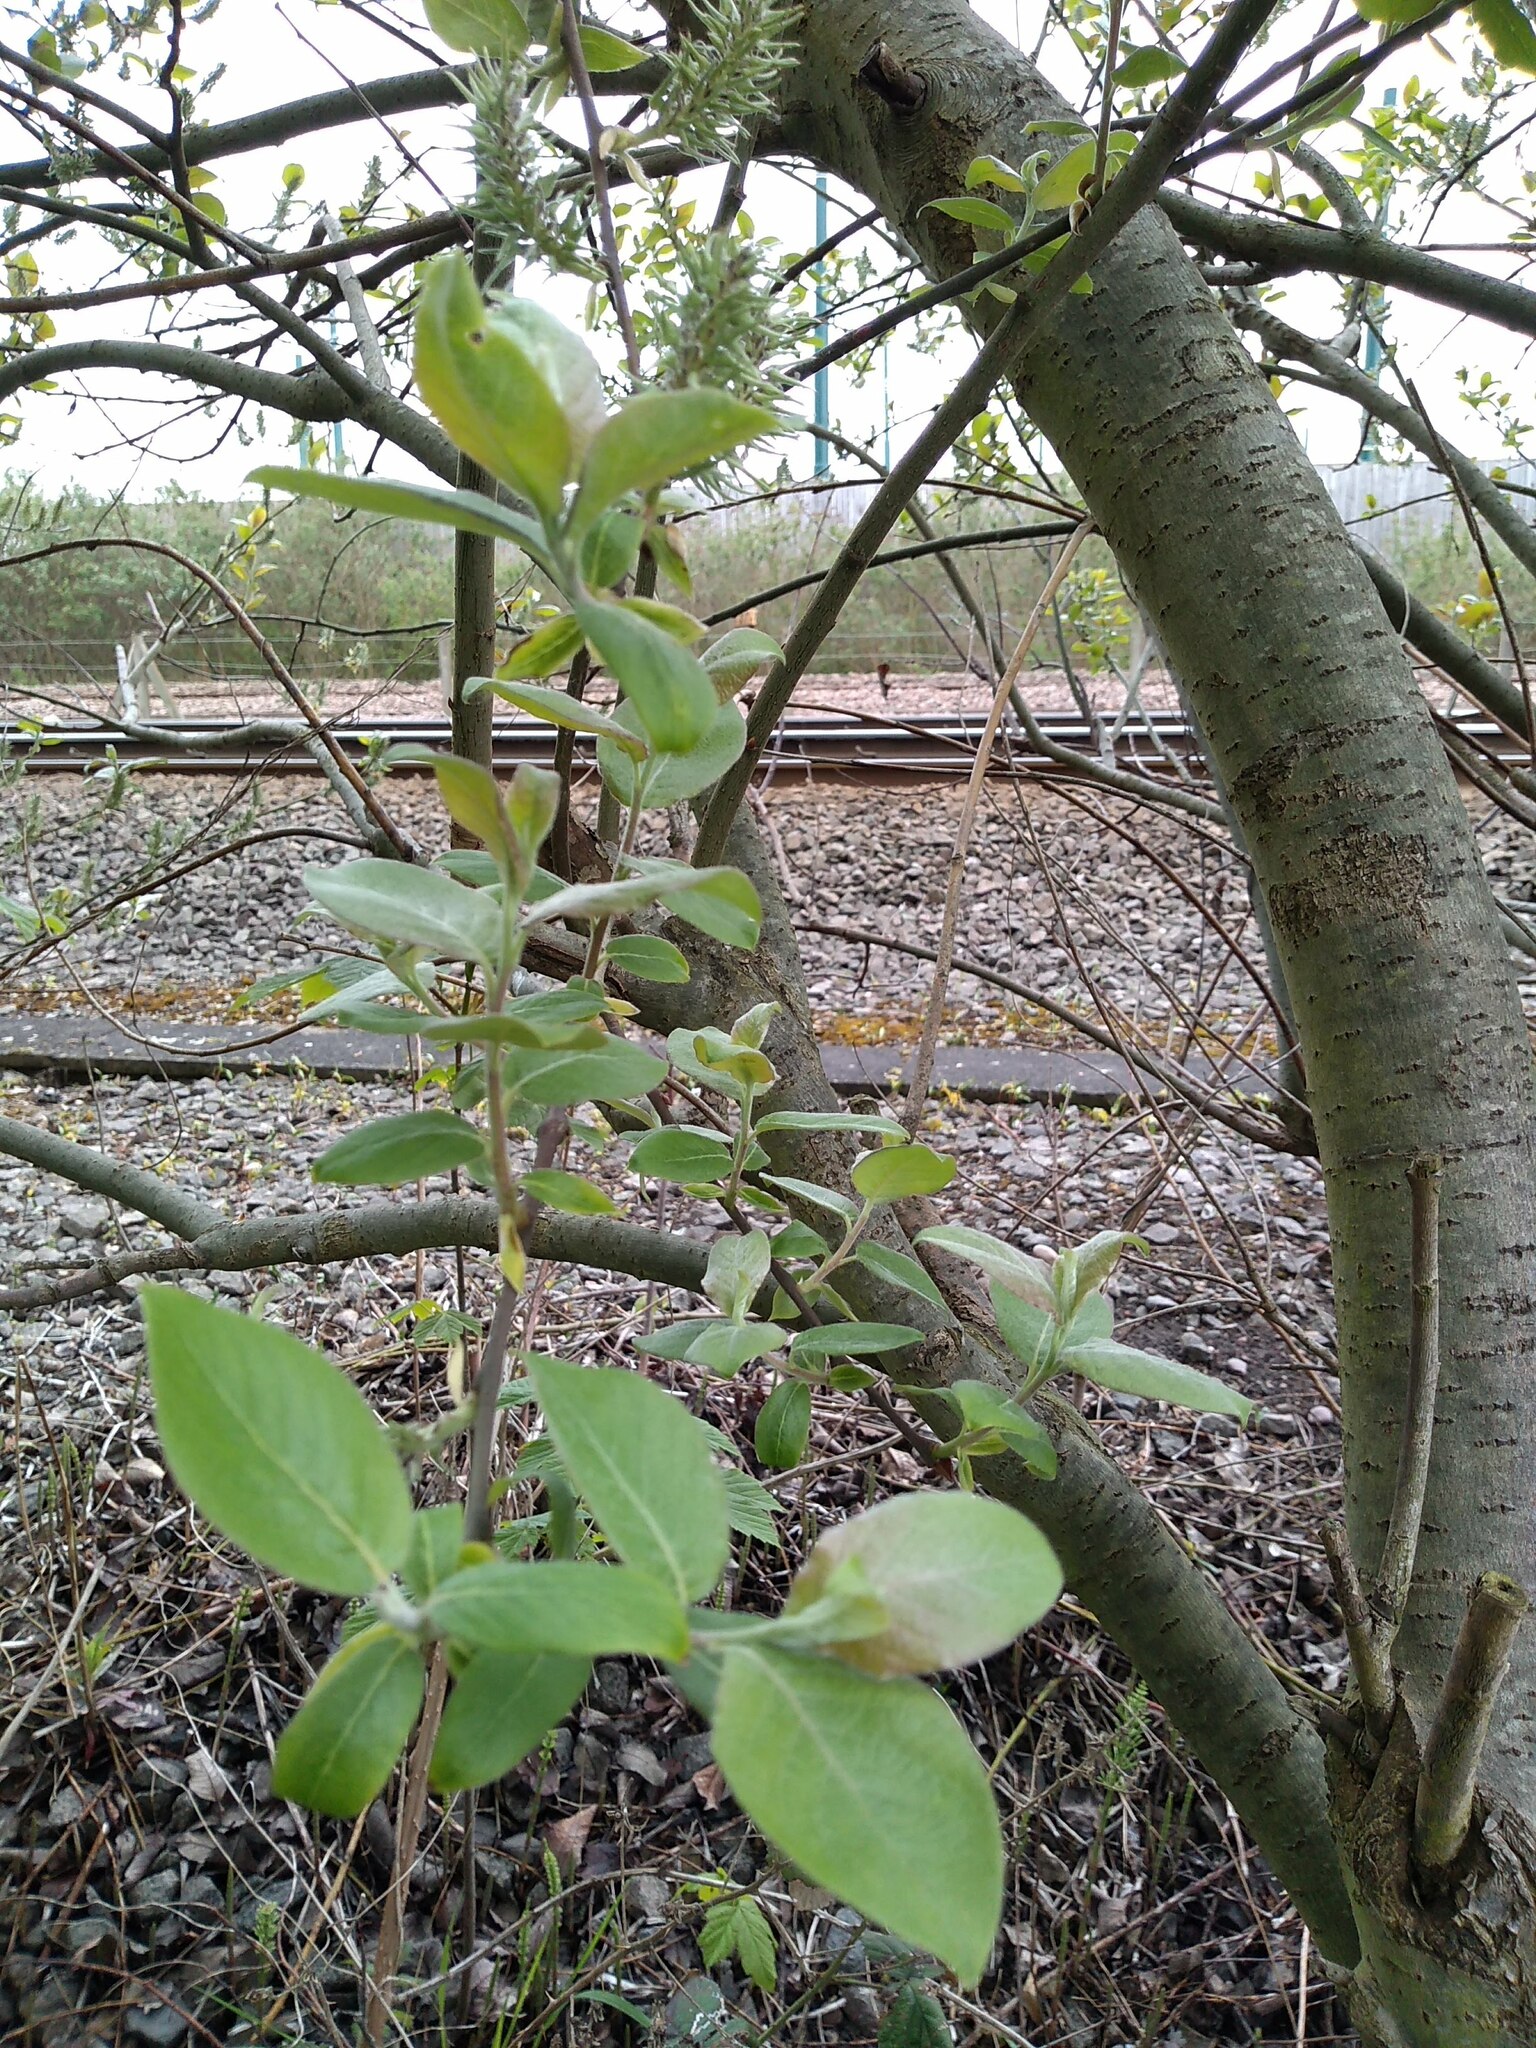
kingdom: Plantae
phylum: Tracheophyta
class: Magnoliopsida
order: Malpighiales
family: Salicaceae
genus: Salix
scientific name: Salix caprea
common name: Goat willow
